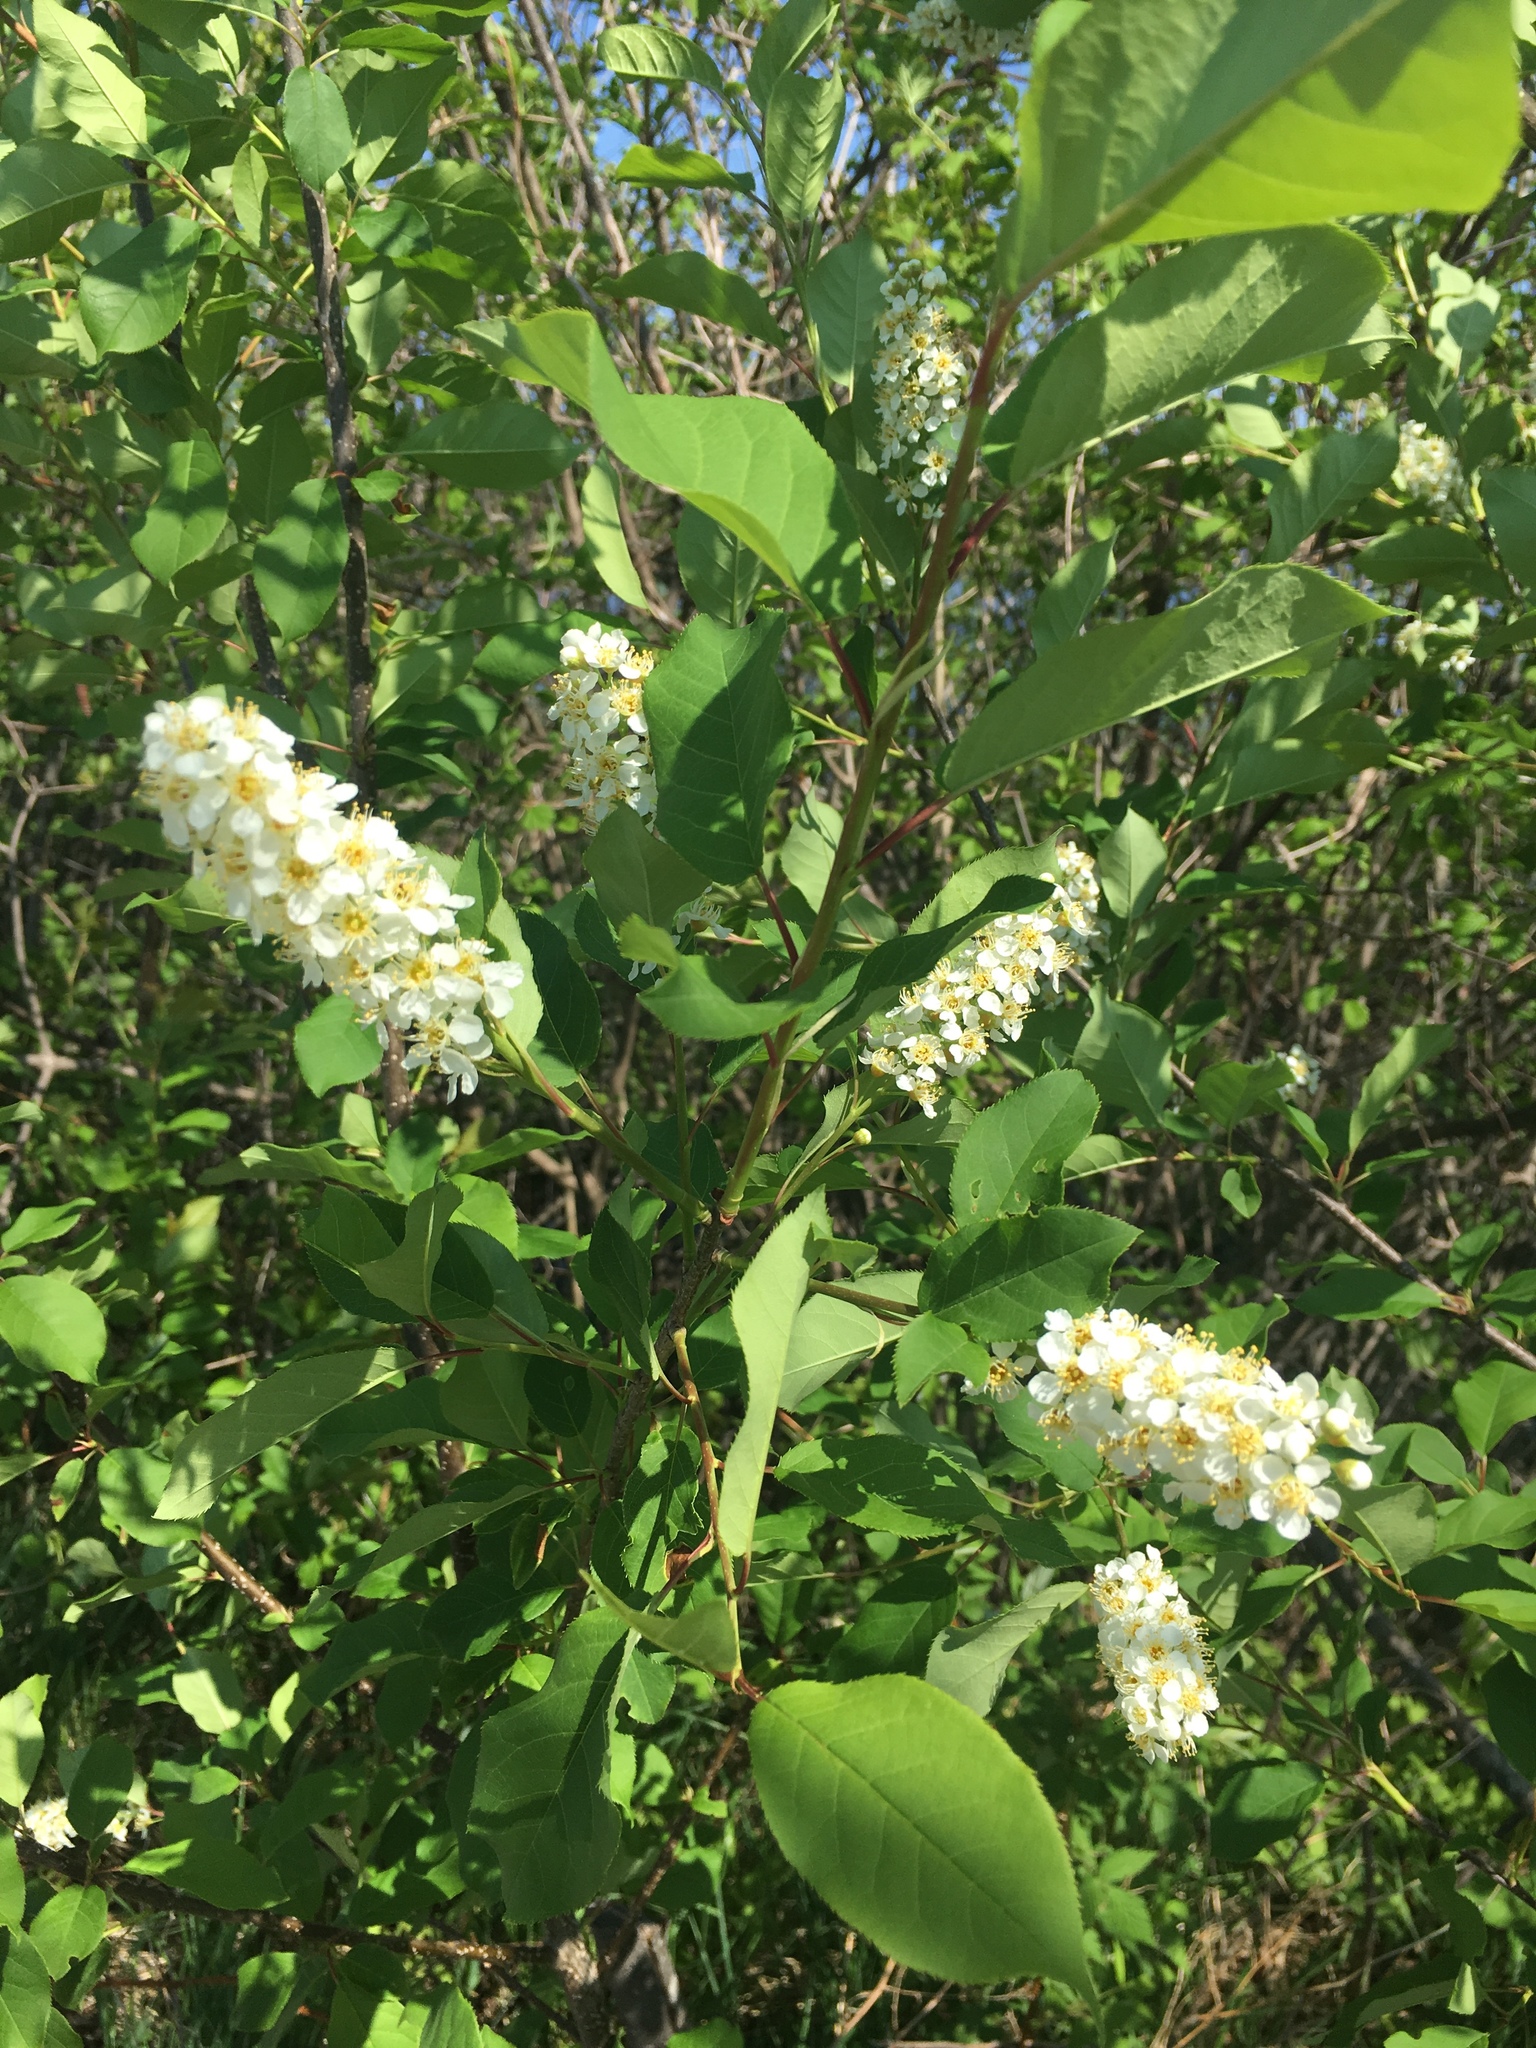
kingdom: Plantae
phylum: Tracheophyta
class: Magnoliopsida
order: Rosales
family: Rosaceae
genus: Prunus
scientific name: Prunus virginiana
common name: Chokecherry
